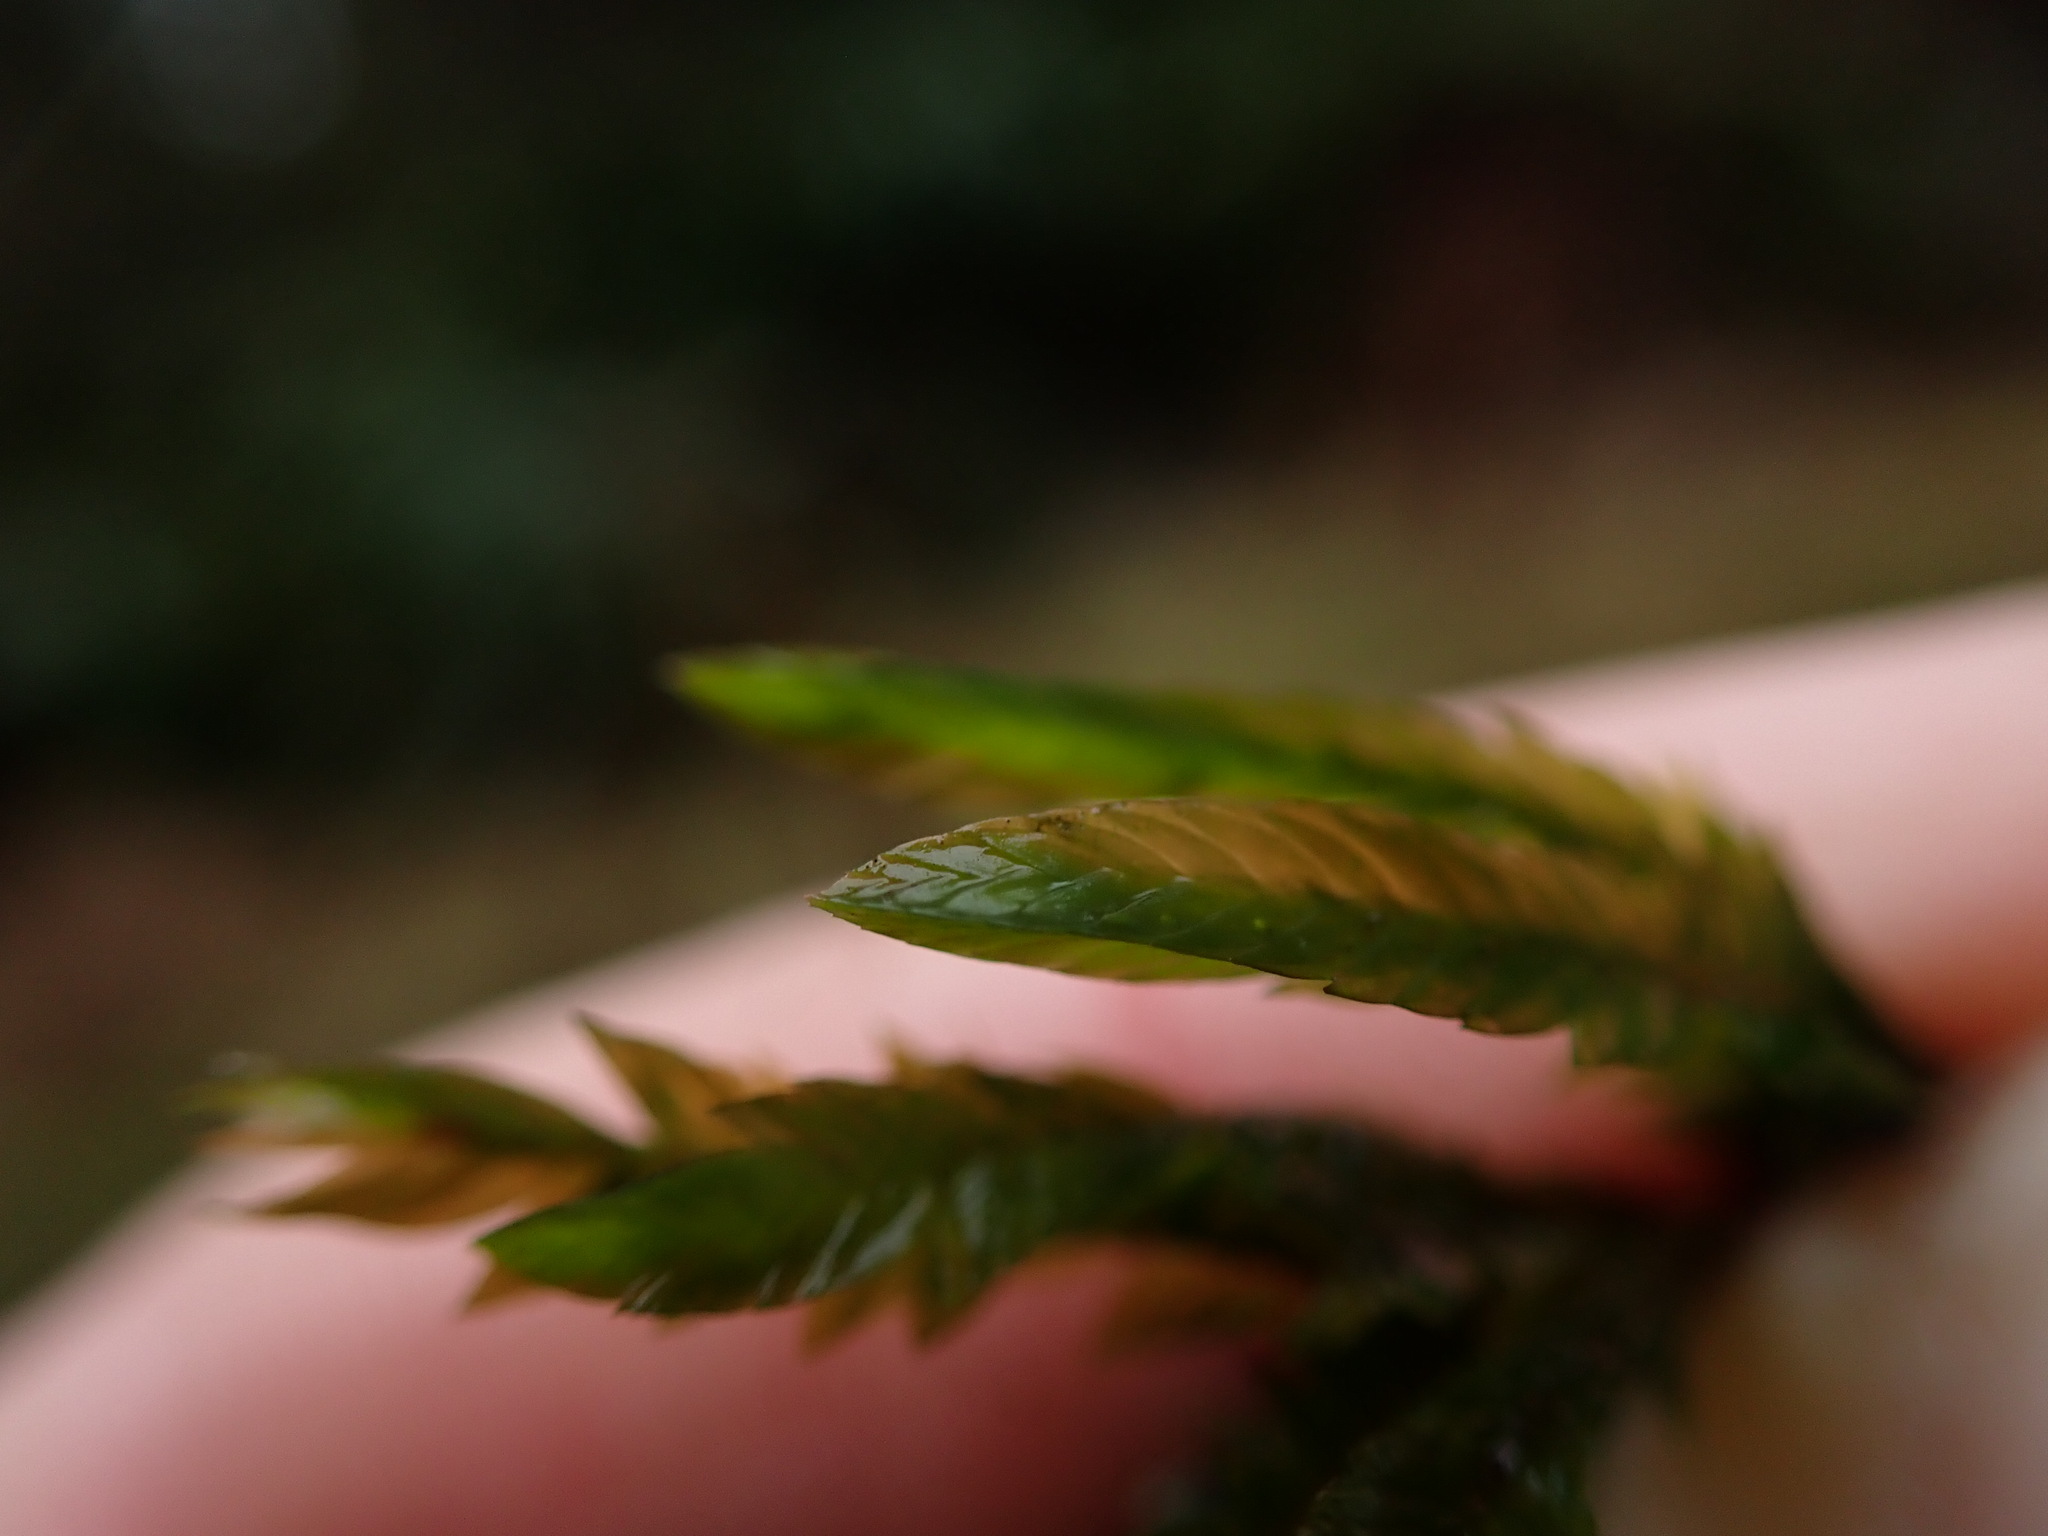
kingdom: Plantae
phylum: Bryophyta
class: Bryopsida
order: Hypnales
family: Fontinalaceae
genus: Fontinalis
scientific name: Fontinalis neomexicana
